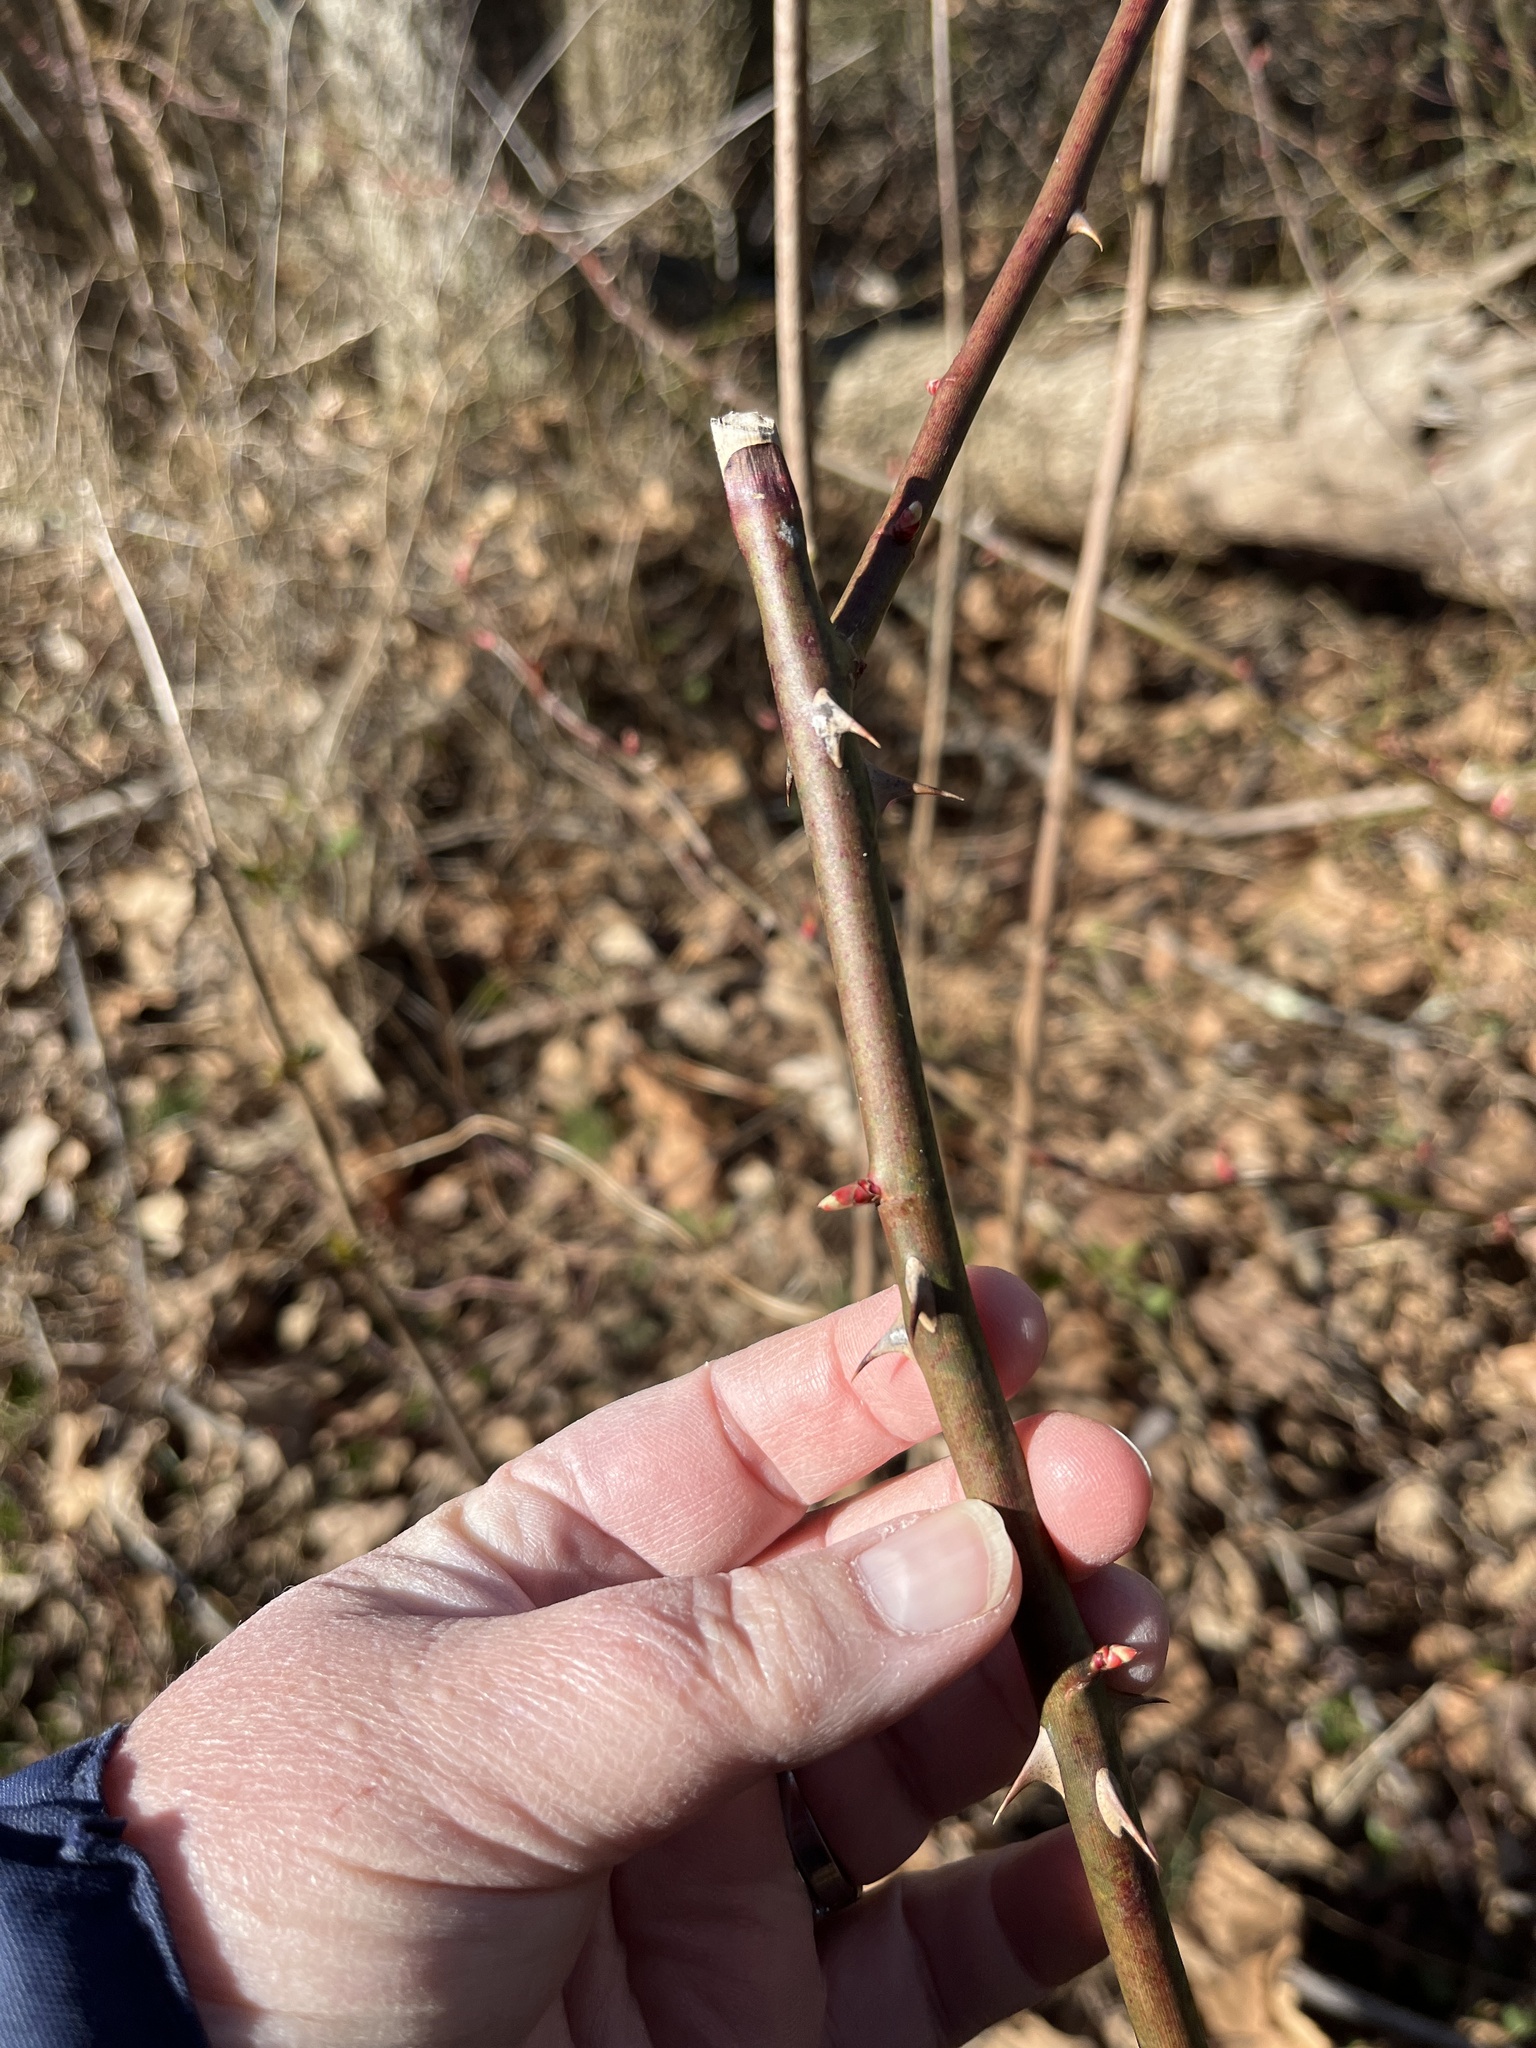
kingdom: Plantae
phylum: Tracheophyta
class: Magnoliopsida
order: Rosales
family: Rosaceae
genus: Rosa
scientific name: Rosa multiflora
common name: Multiflora rose
